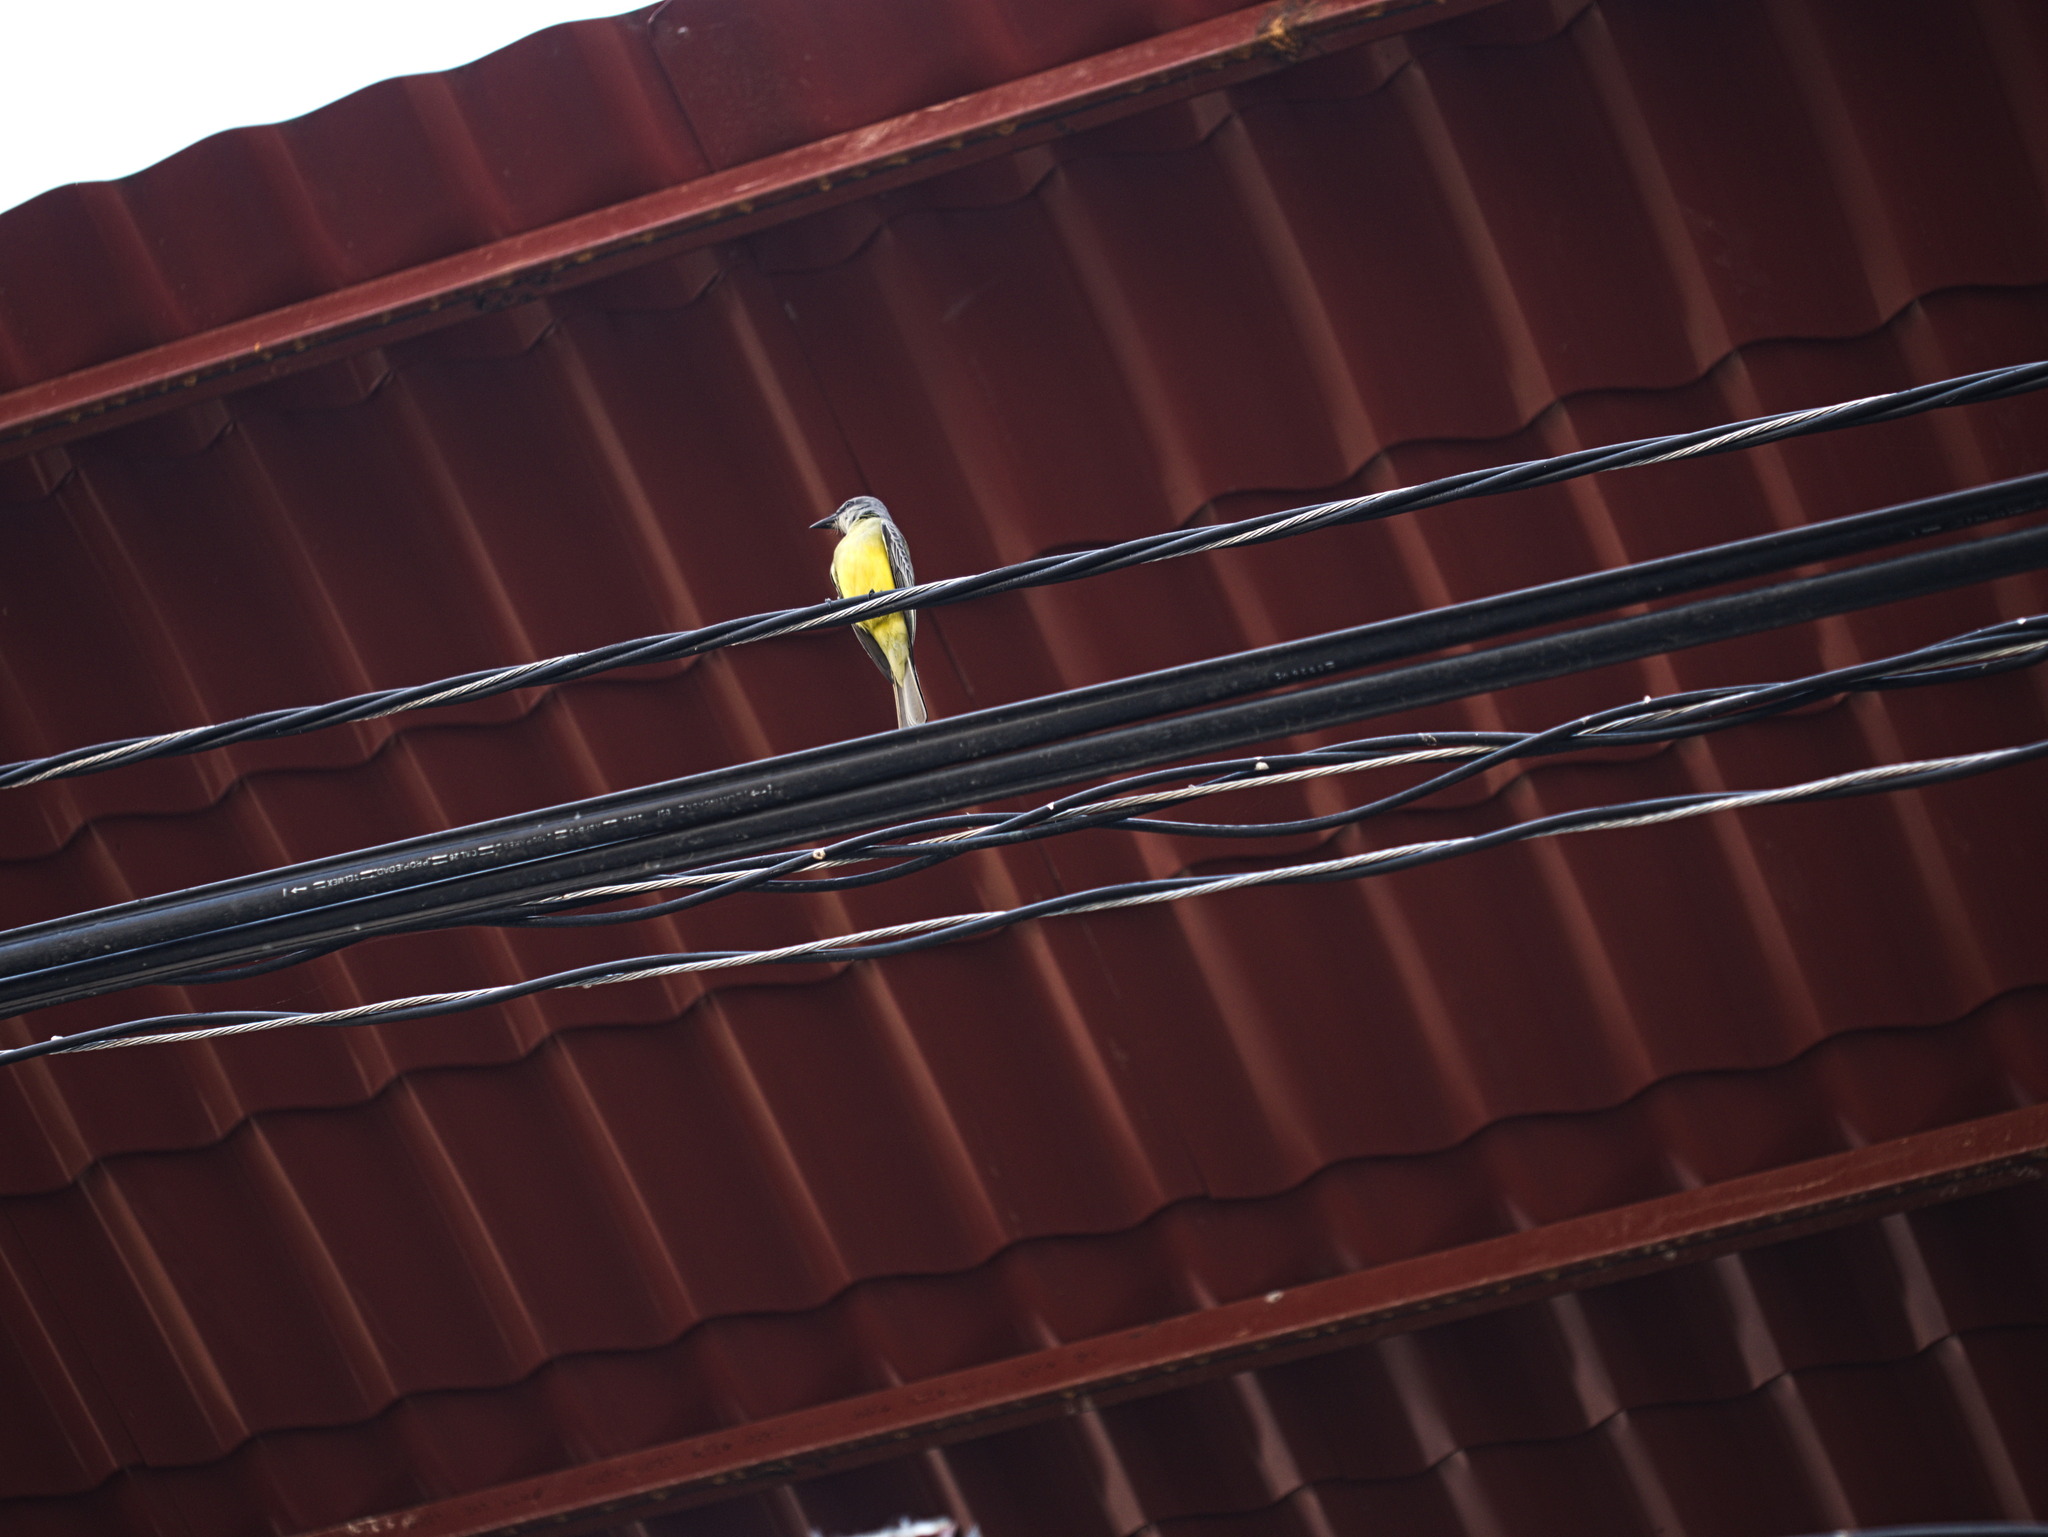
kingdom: Animalia
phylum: Chordata
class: Aves
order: Passeriformes
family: Tyrannidae
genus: Tyrannus
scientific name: Tyrannus melancholicus
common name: Tropical kingbird
